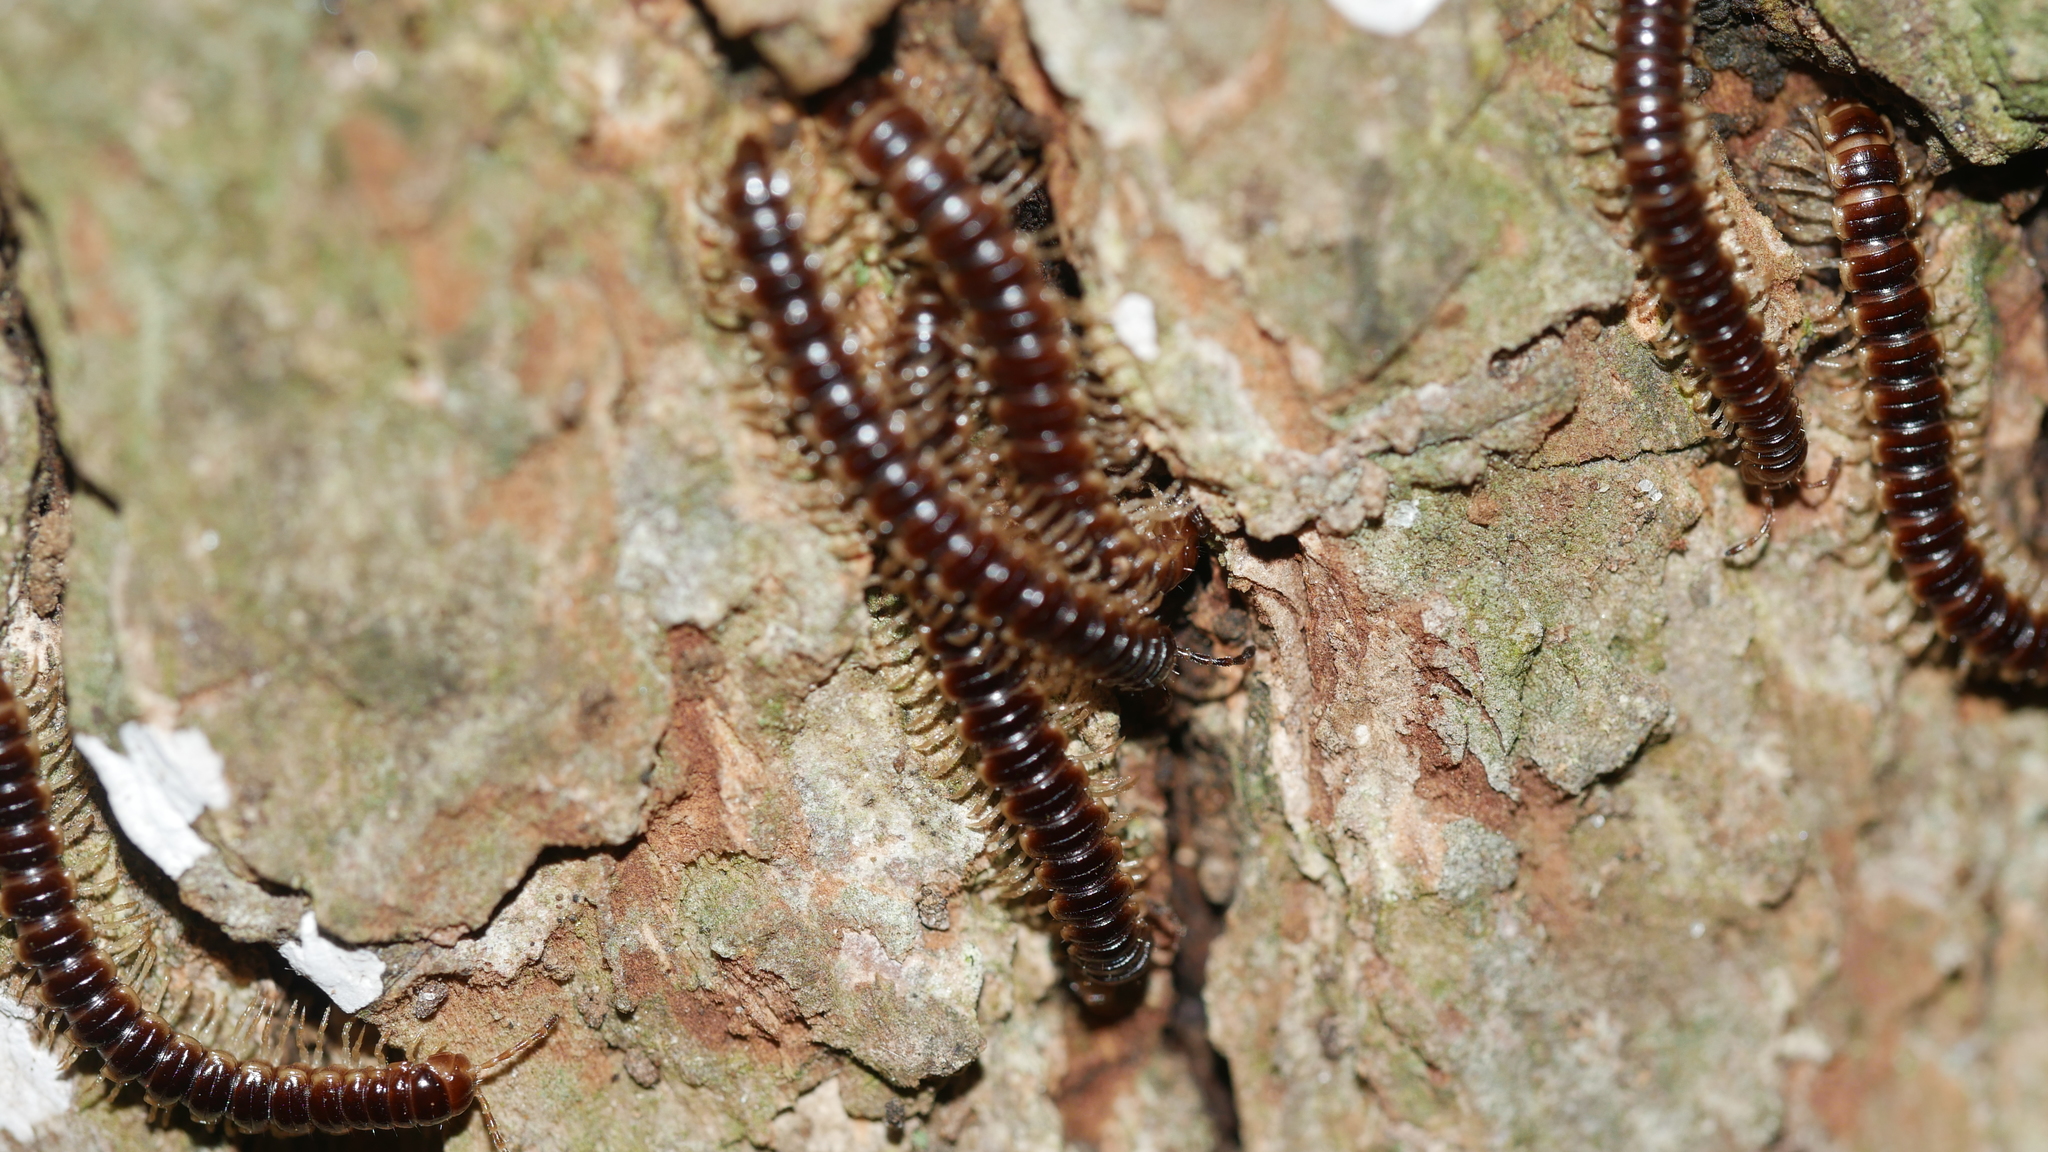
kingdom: Animalia
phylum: Arthropoda
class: Diplopoda
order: Polydesmida
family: Paradoxosomatidae
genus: Oxidus
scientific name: Oxidus gracilis
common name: Greenhouse millipede
